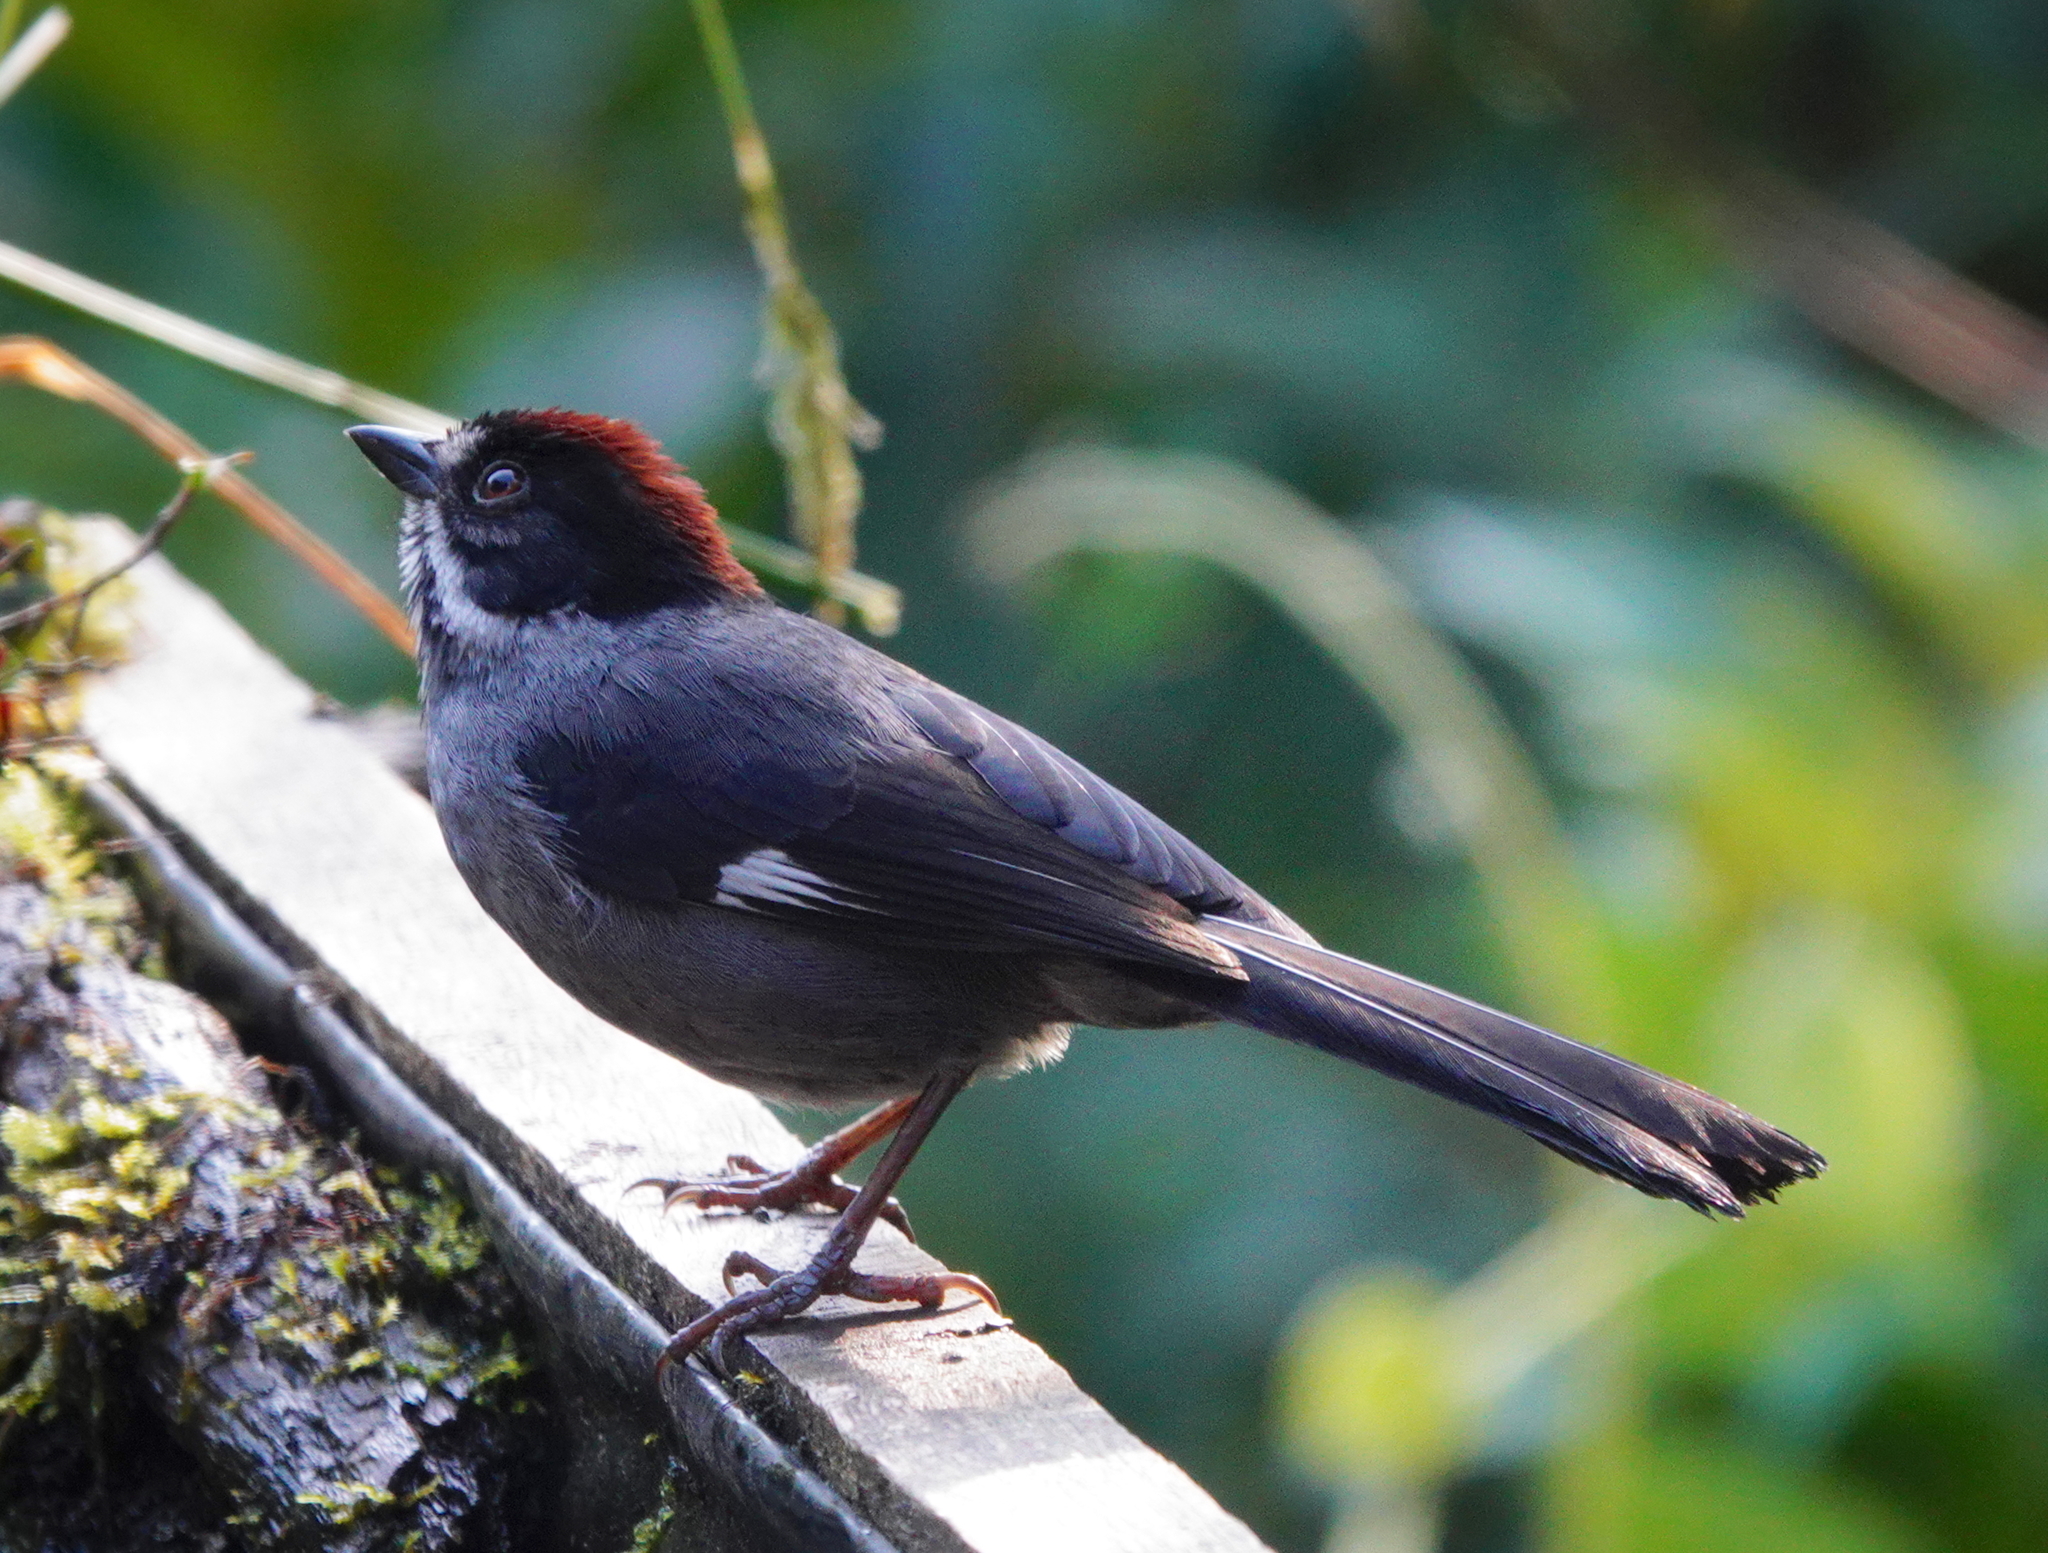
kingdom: Animalia
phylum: Chordata
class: Aves
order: Passeriformes
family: Passerellidae
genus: Atlapetes
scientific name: Atlapetes schistaceus
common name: Slaty brushfinch
